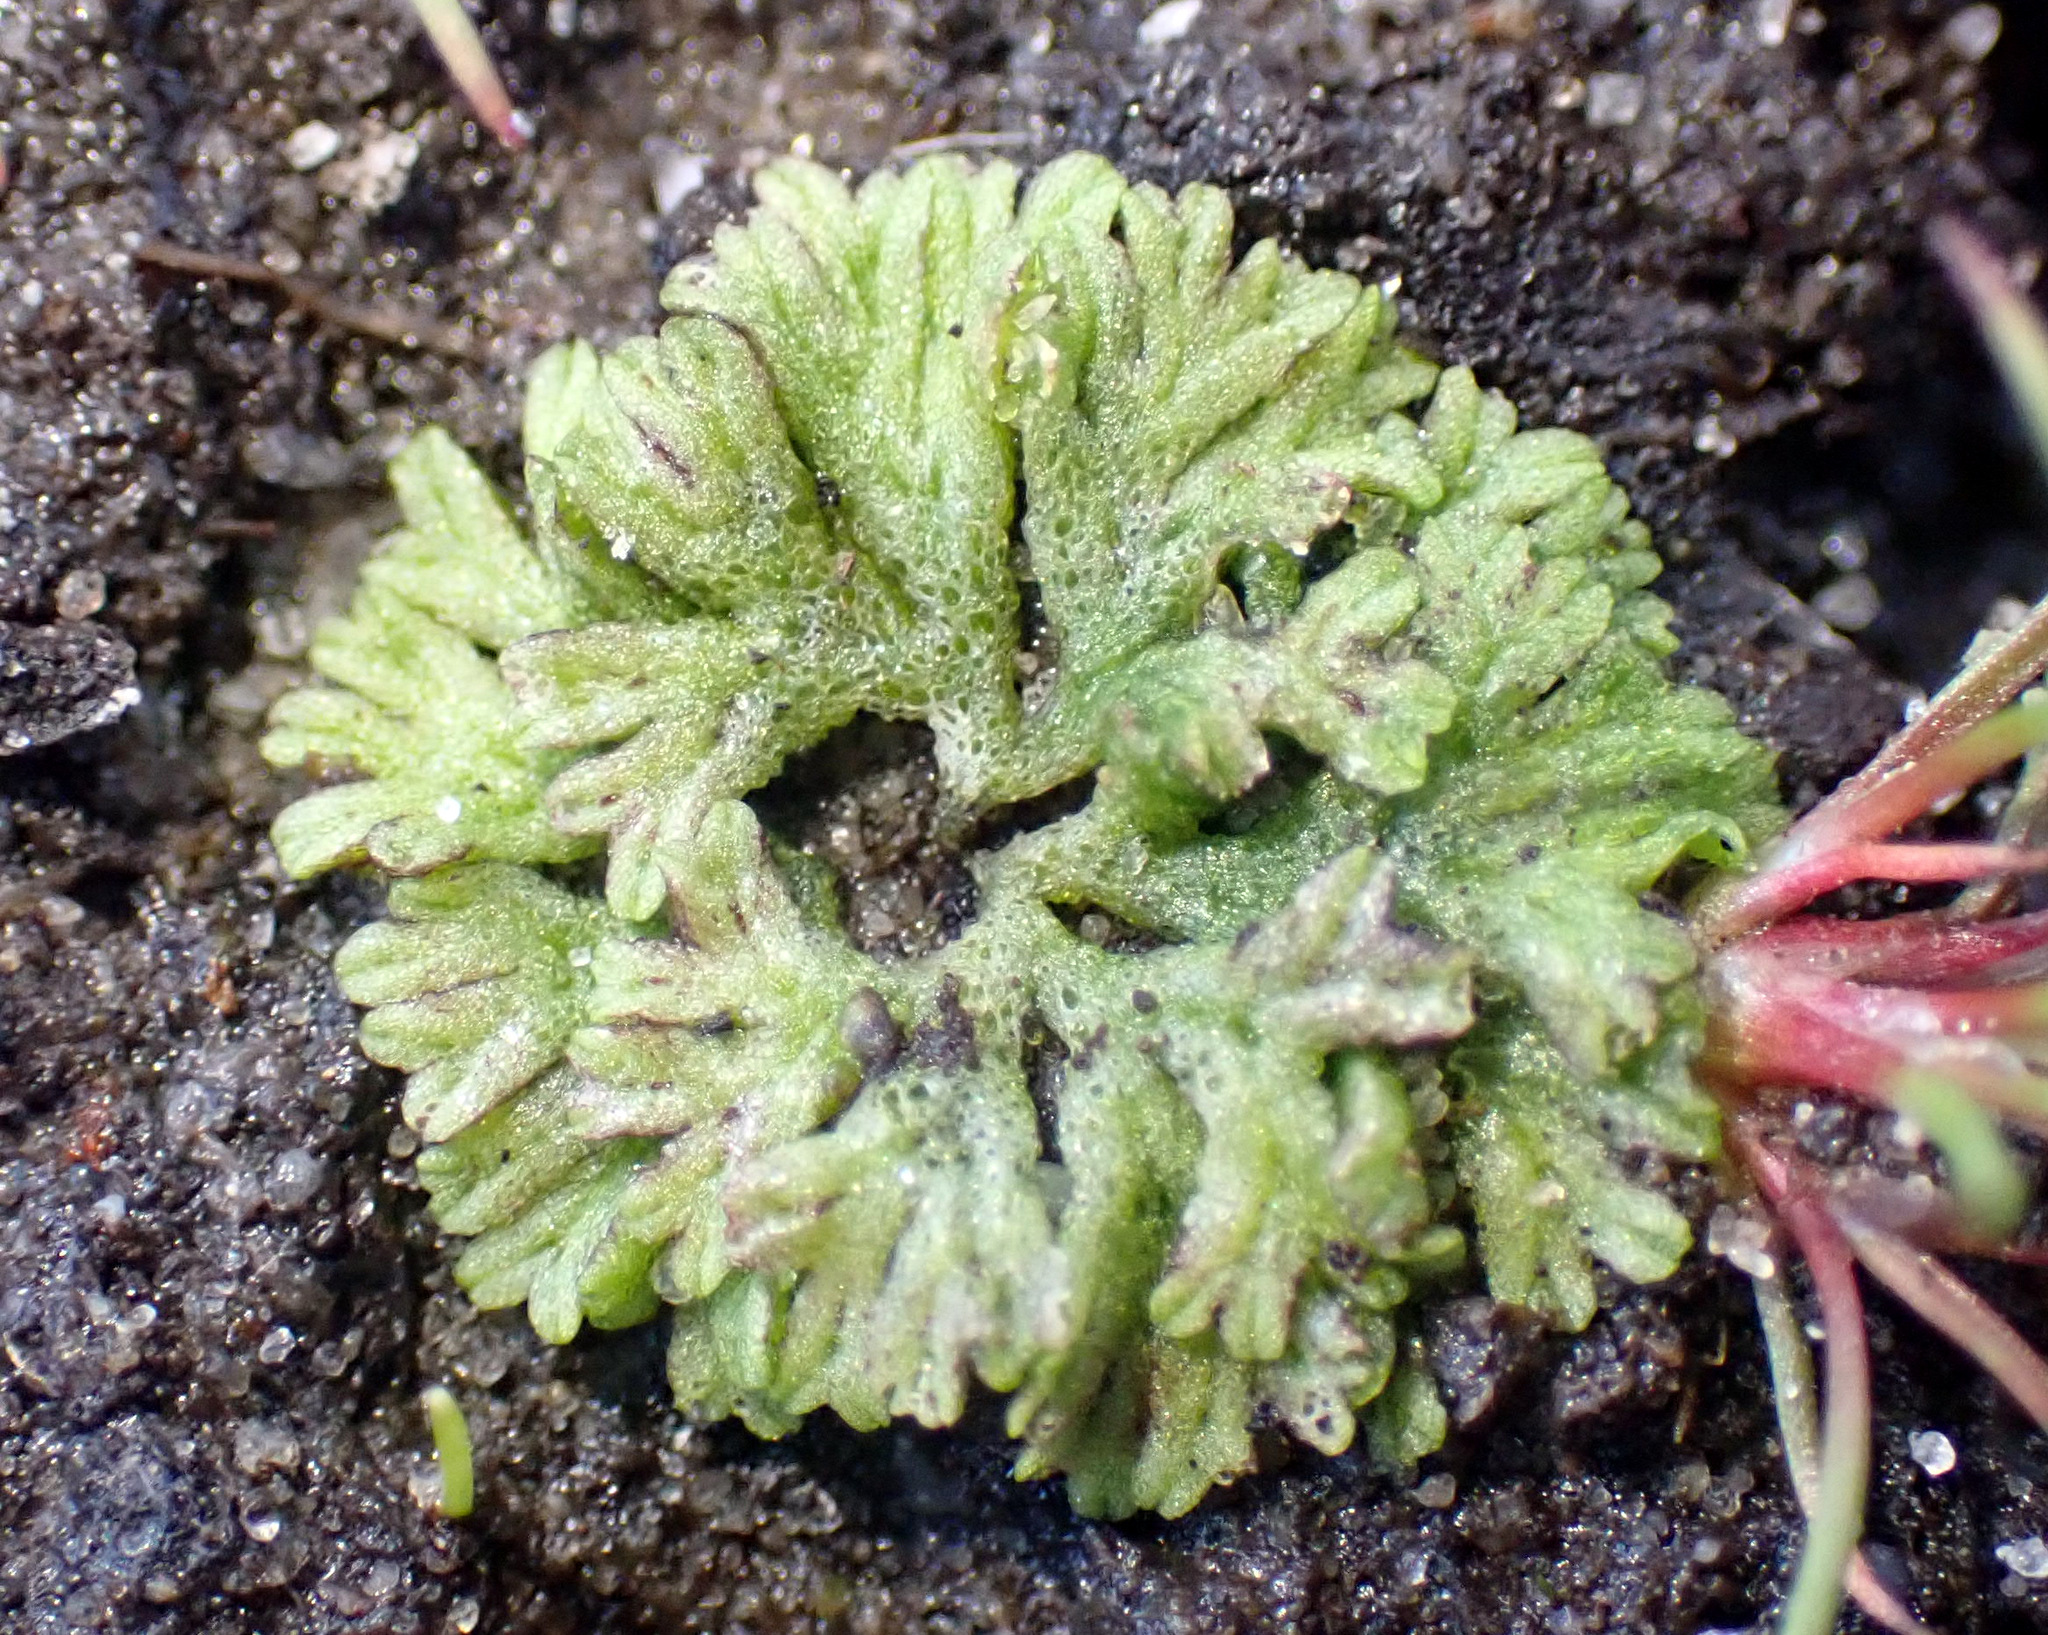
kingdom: Plantae
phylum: Marchantiophyta
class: Marchantiopsida
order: Marchantiales
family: Ricciaceae
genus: Riccia
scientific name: Riccia huebeneriana
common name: Violet crystalwort
